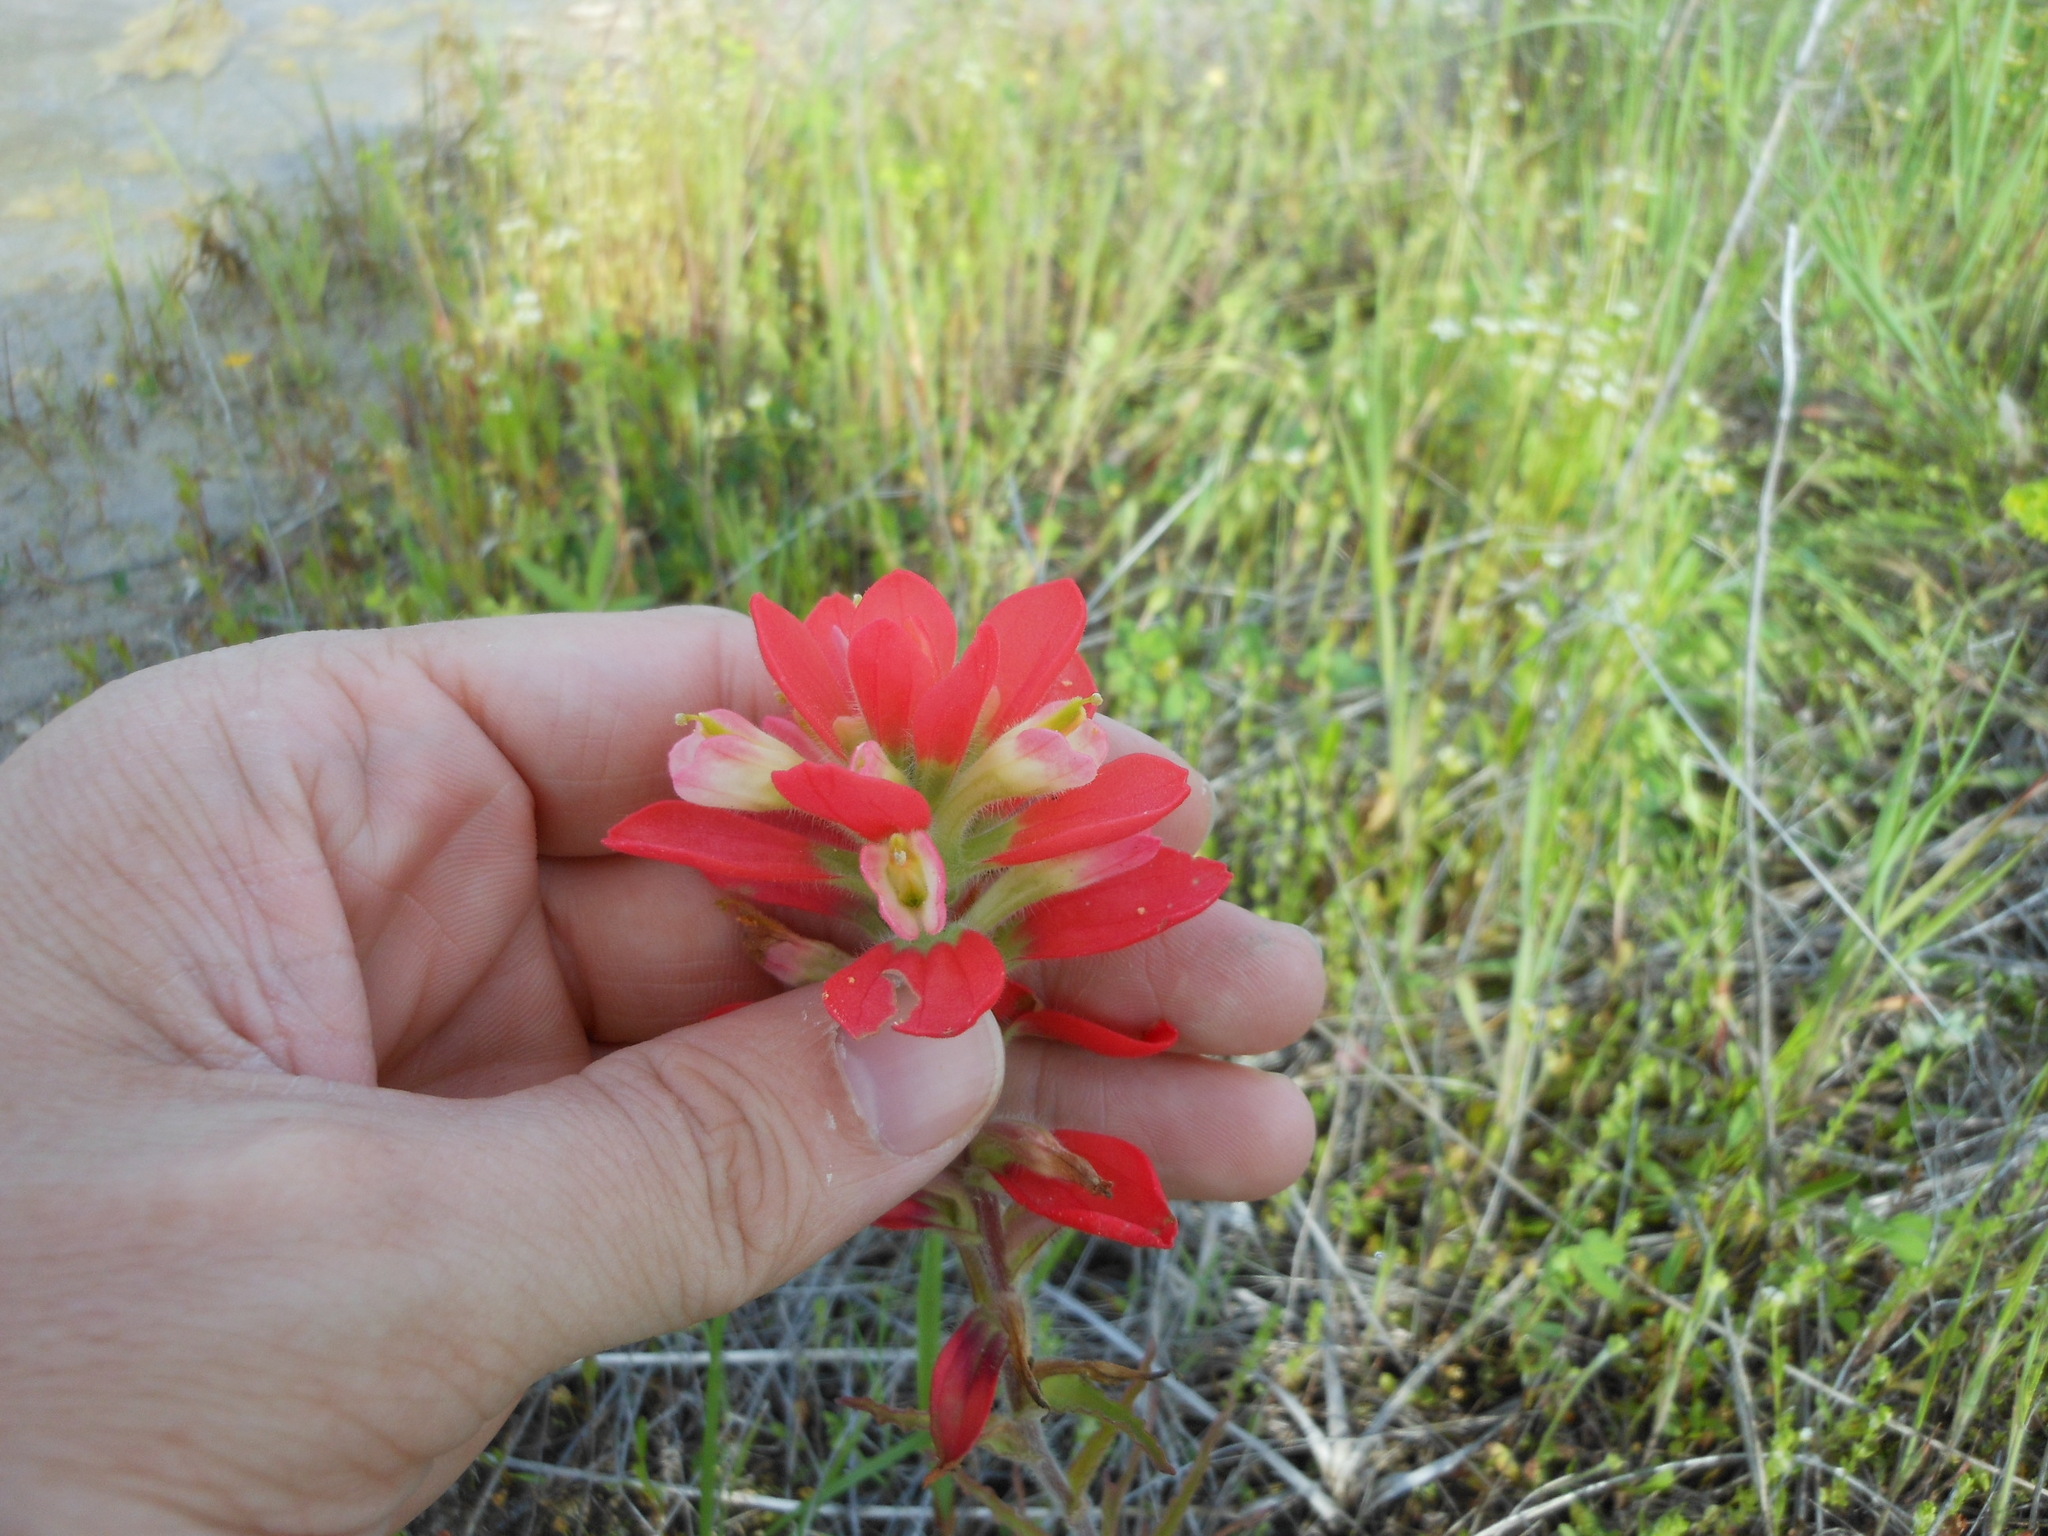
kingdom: Plantae
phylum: Tracheophyta
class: Magnoliopsida
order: Lamiales
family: Orobanchaceae
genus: Castilleja
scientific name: Castilleja indivisa
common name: Texas paintbrush
